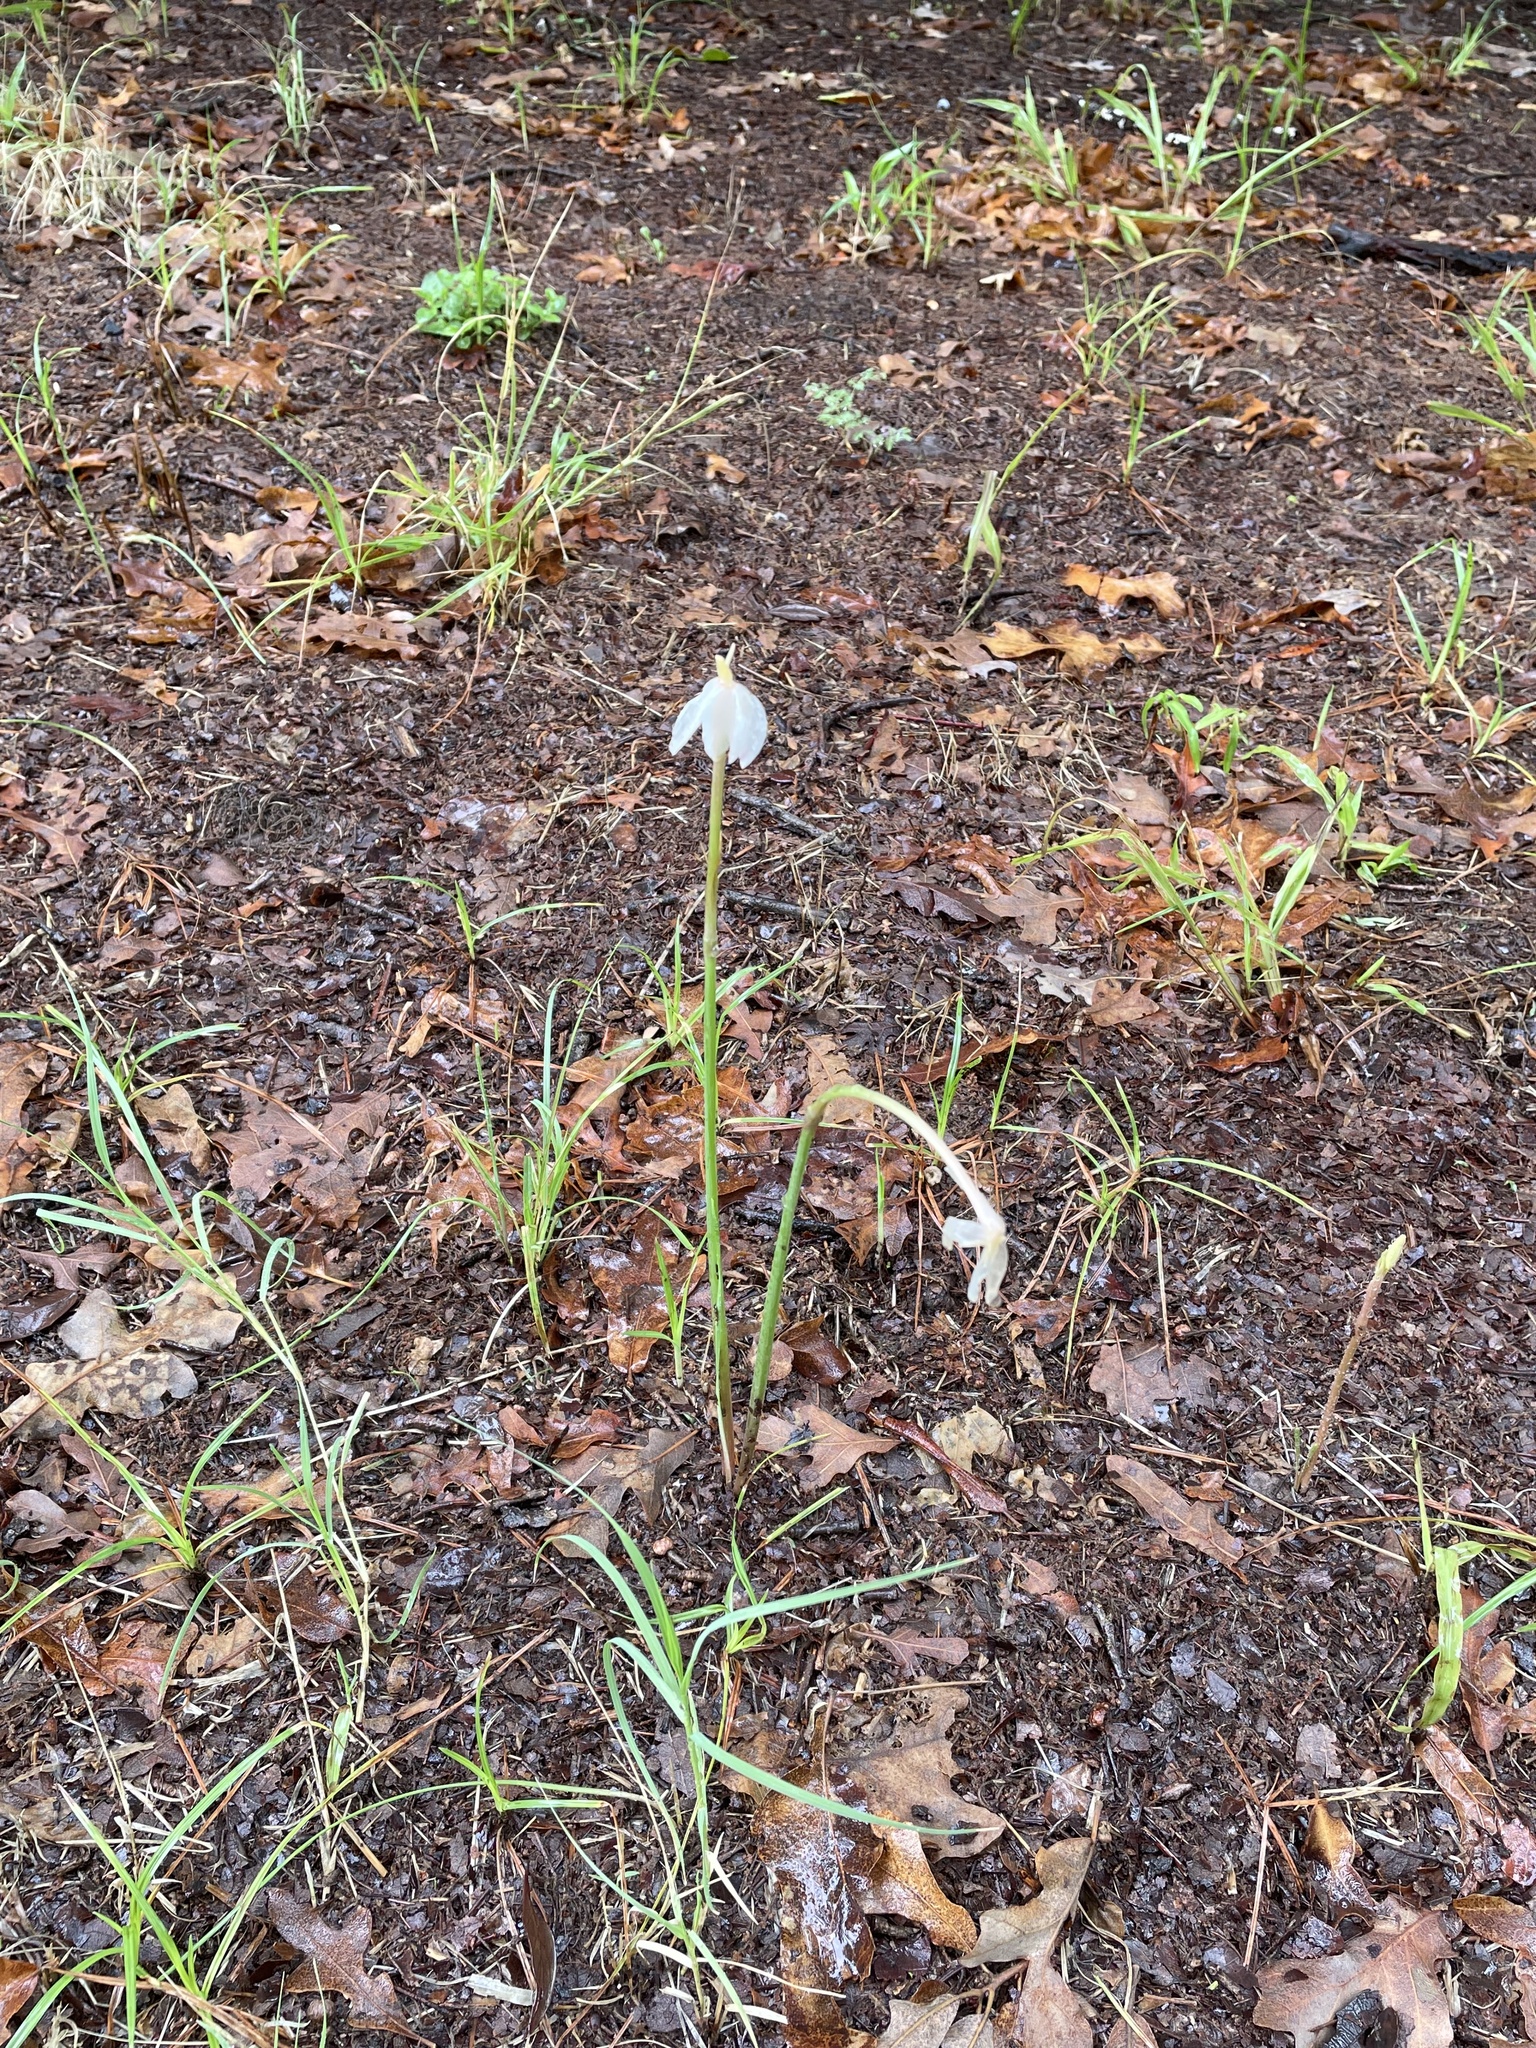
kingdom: Plantae
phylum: Tracheophyta
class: Liliopsida
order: Asparagales
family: Amaryllidaceae
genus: Zephyranthes
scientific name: Zephyranthes chlorosolen
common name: Evening rain-lily
